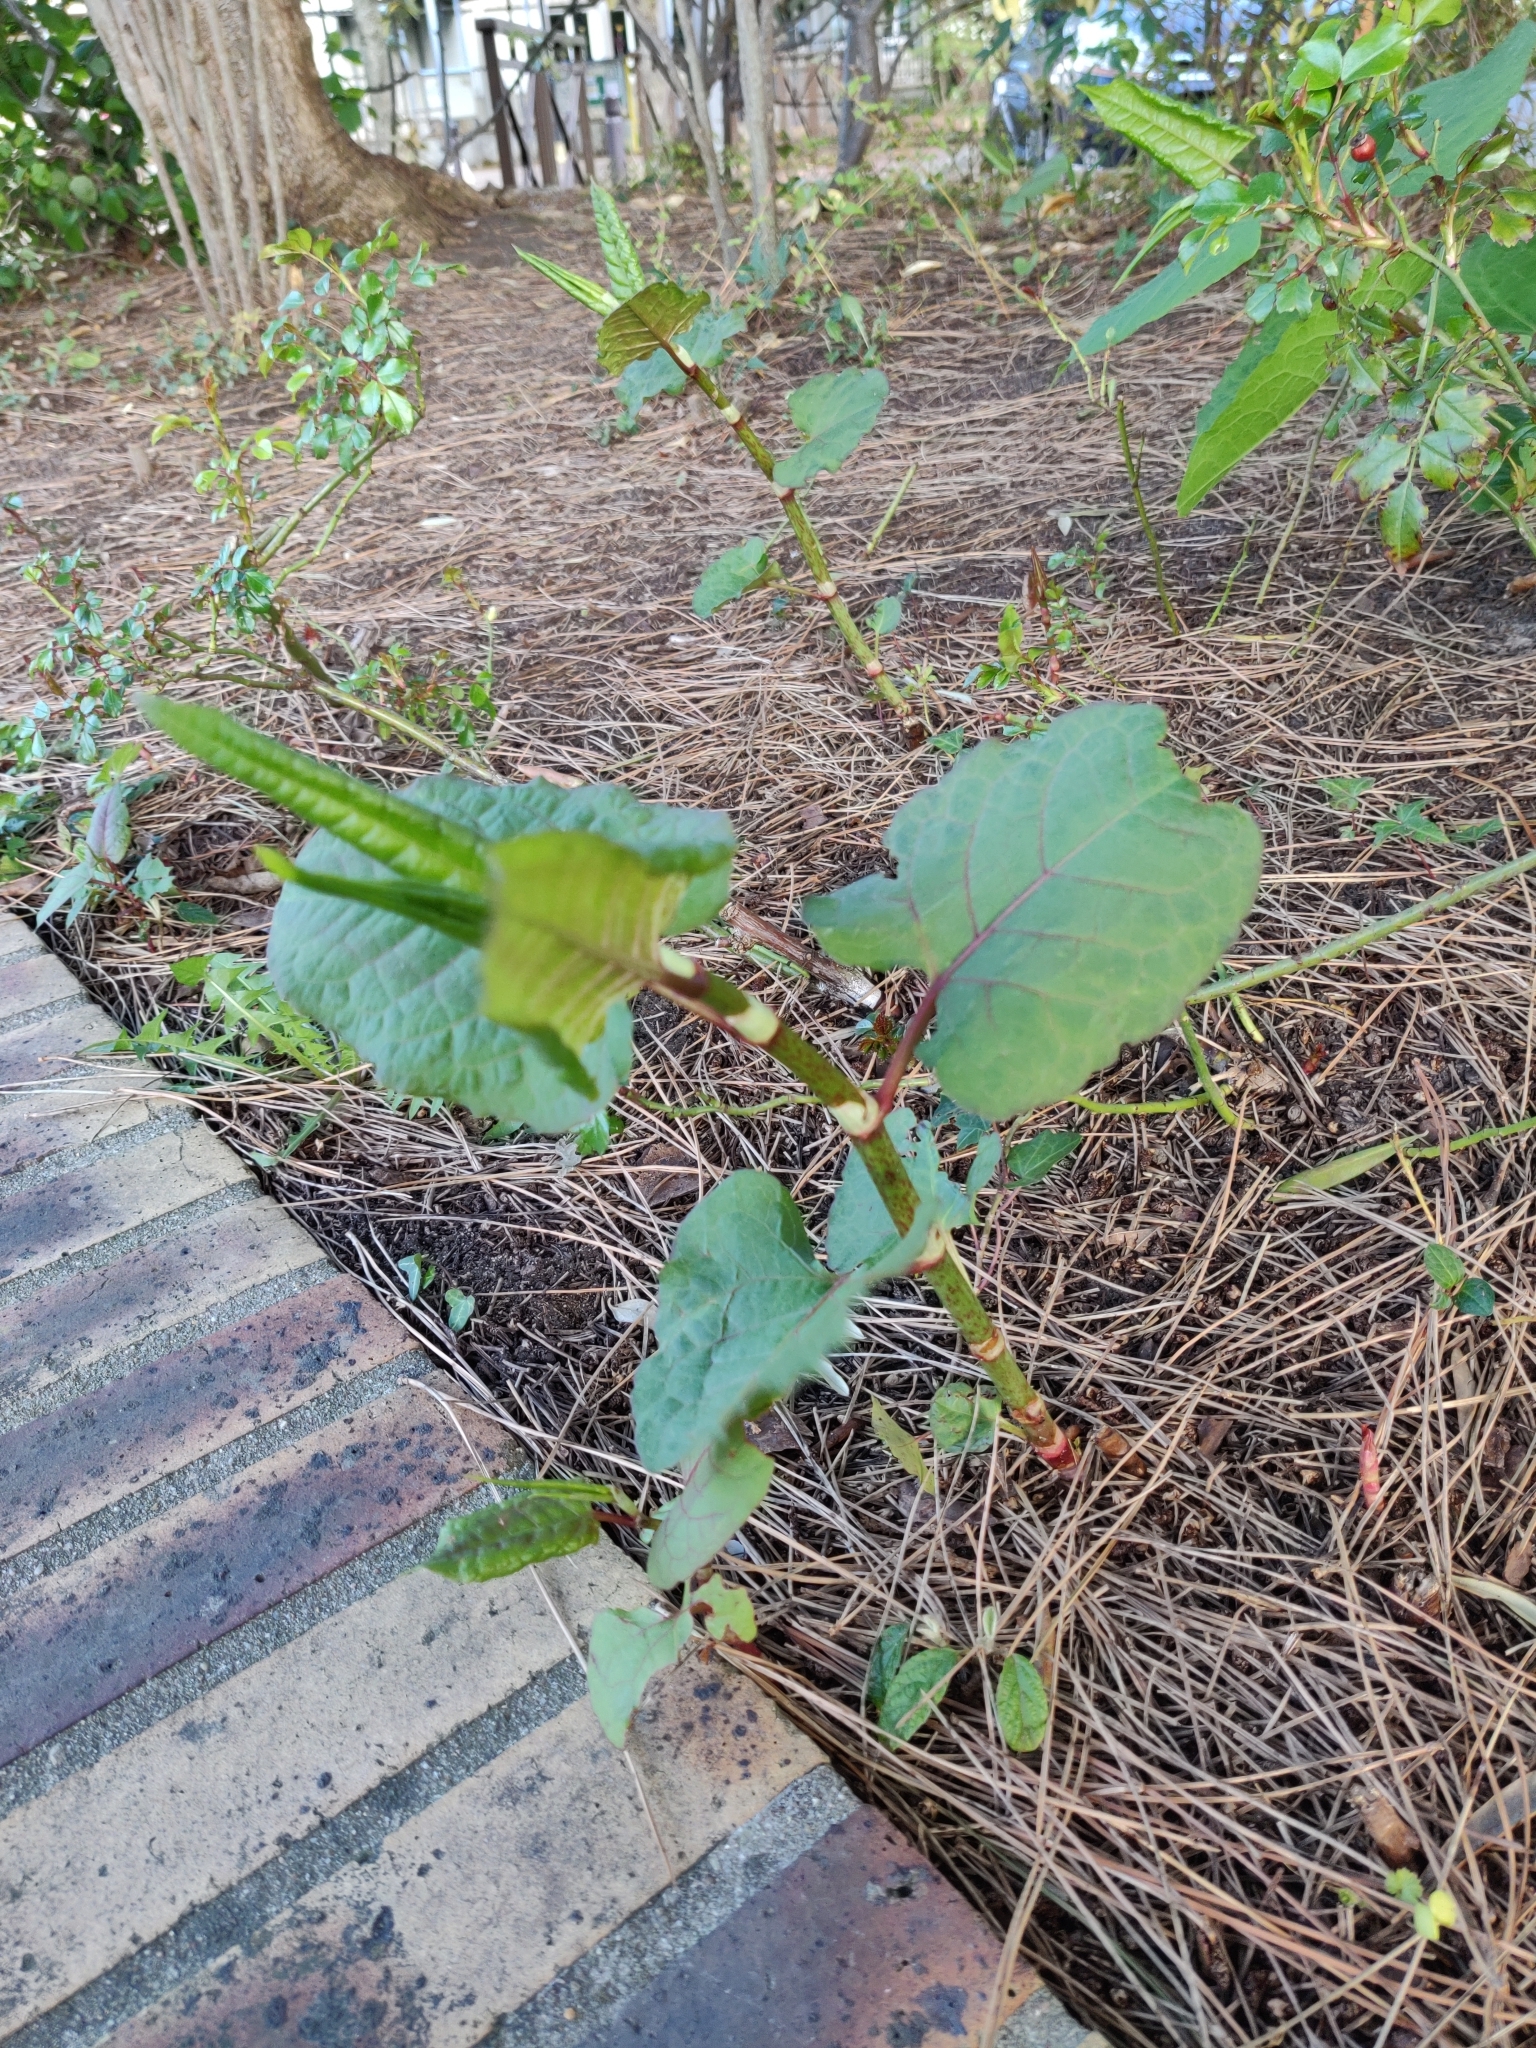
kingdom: Plantae
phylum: Tracheophyta
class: Magnoliopsida
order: Caryophyllales
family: Polygonaceae
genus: Reynoutria
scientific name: Reynoutria japonica
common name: Japanese knotweed
